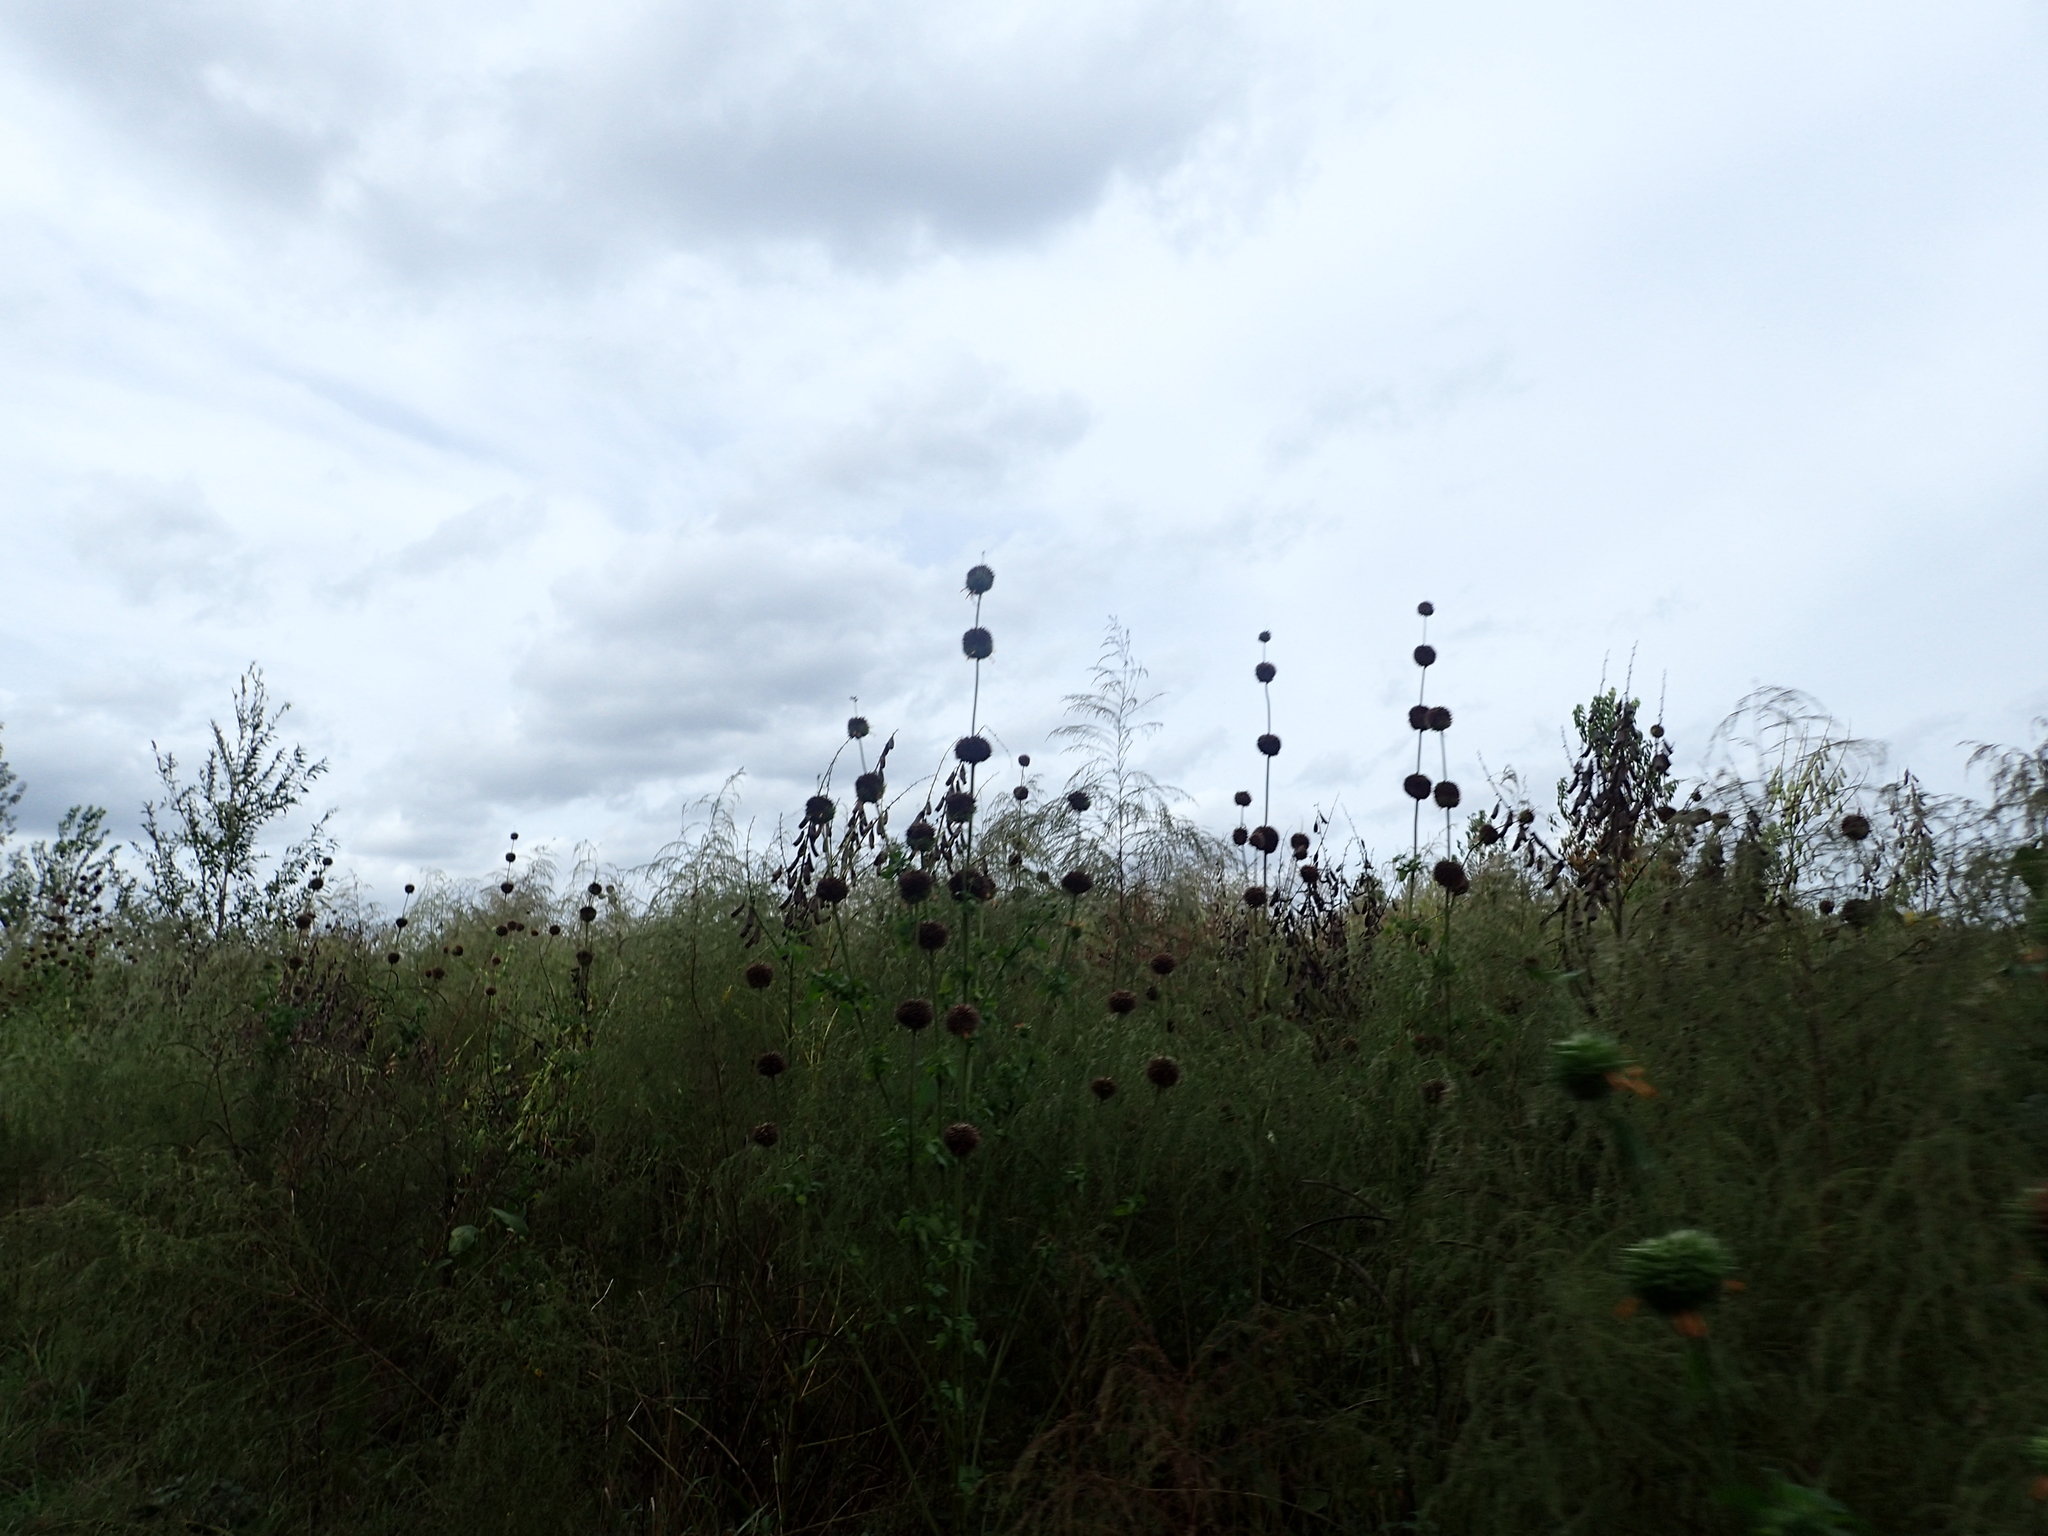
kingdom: Plantae
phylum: Tracheophyta
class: Magnoliopsida
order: Lamiales
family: Lamiaceae
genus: Leonotis
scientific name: Leonotis nepetifolia
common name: Christmas candlestick
